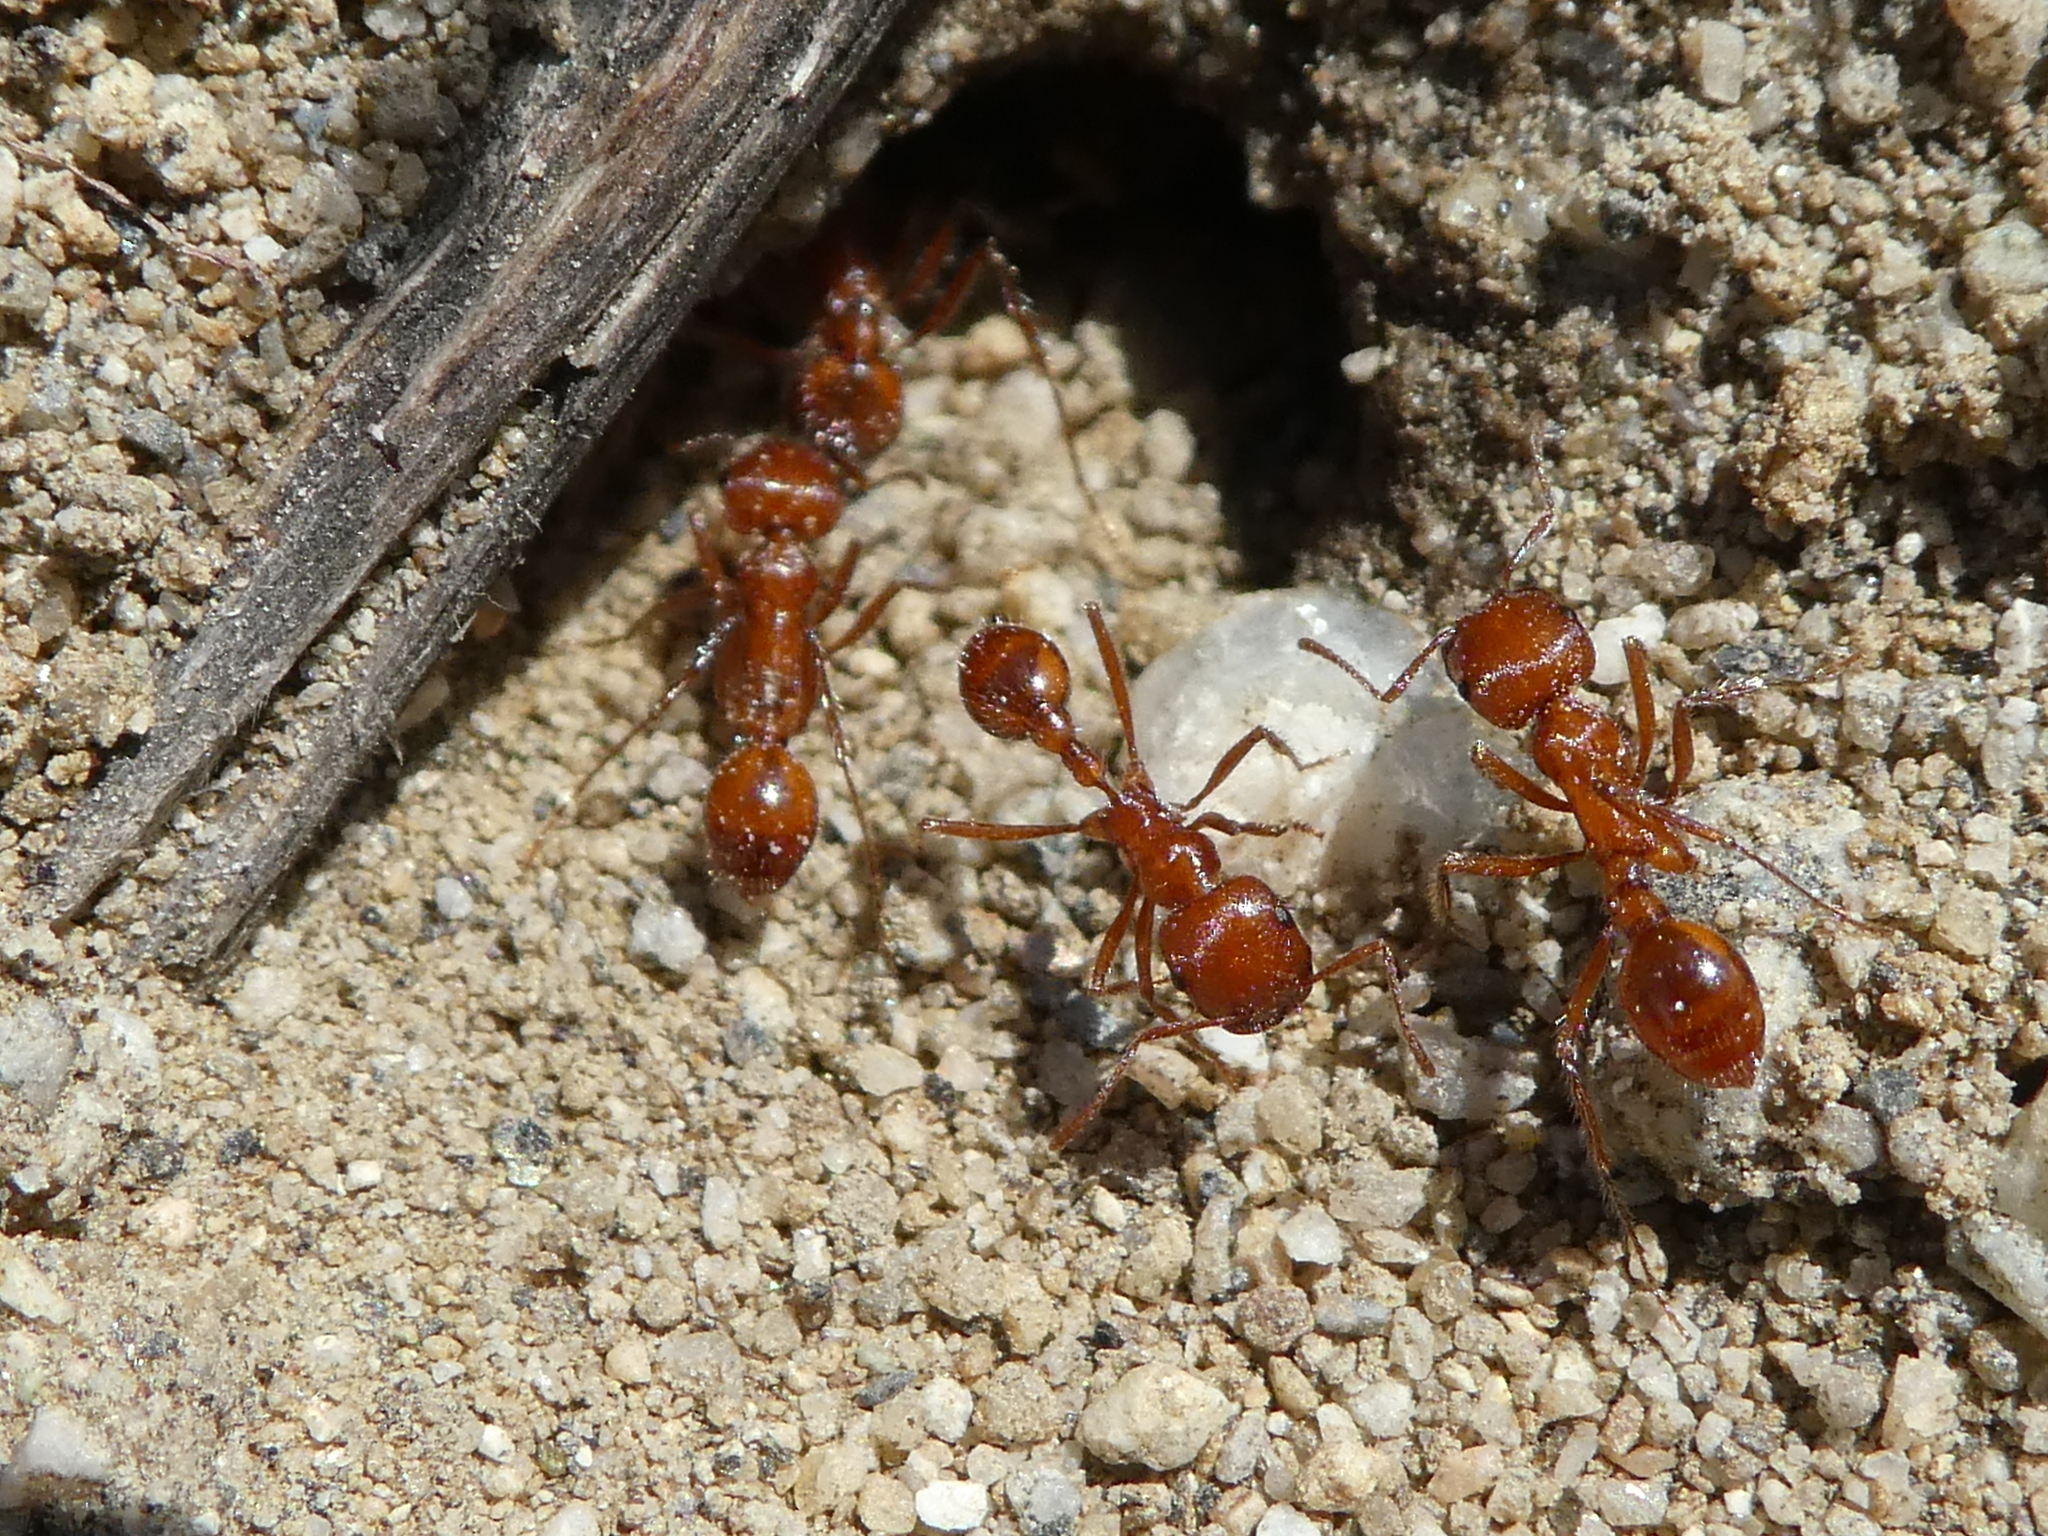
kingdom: Animalia
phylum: Arthropoda
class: Insecta
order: Hymenoptera
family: Formicidae
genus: Pogonomyrmex
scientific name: Pogonomyrmex californicus
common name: California harvester ant
